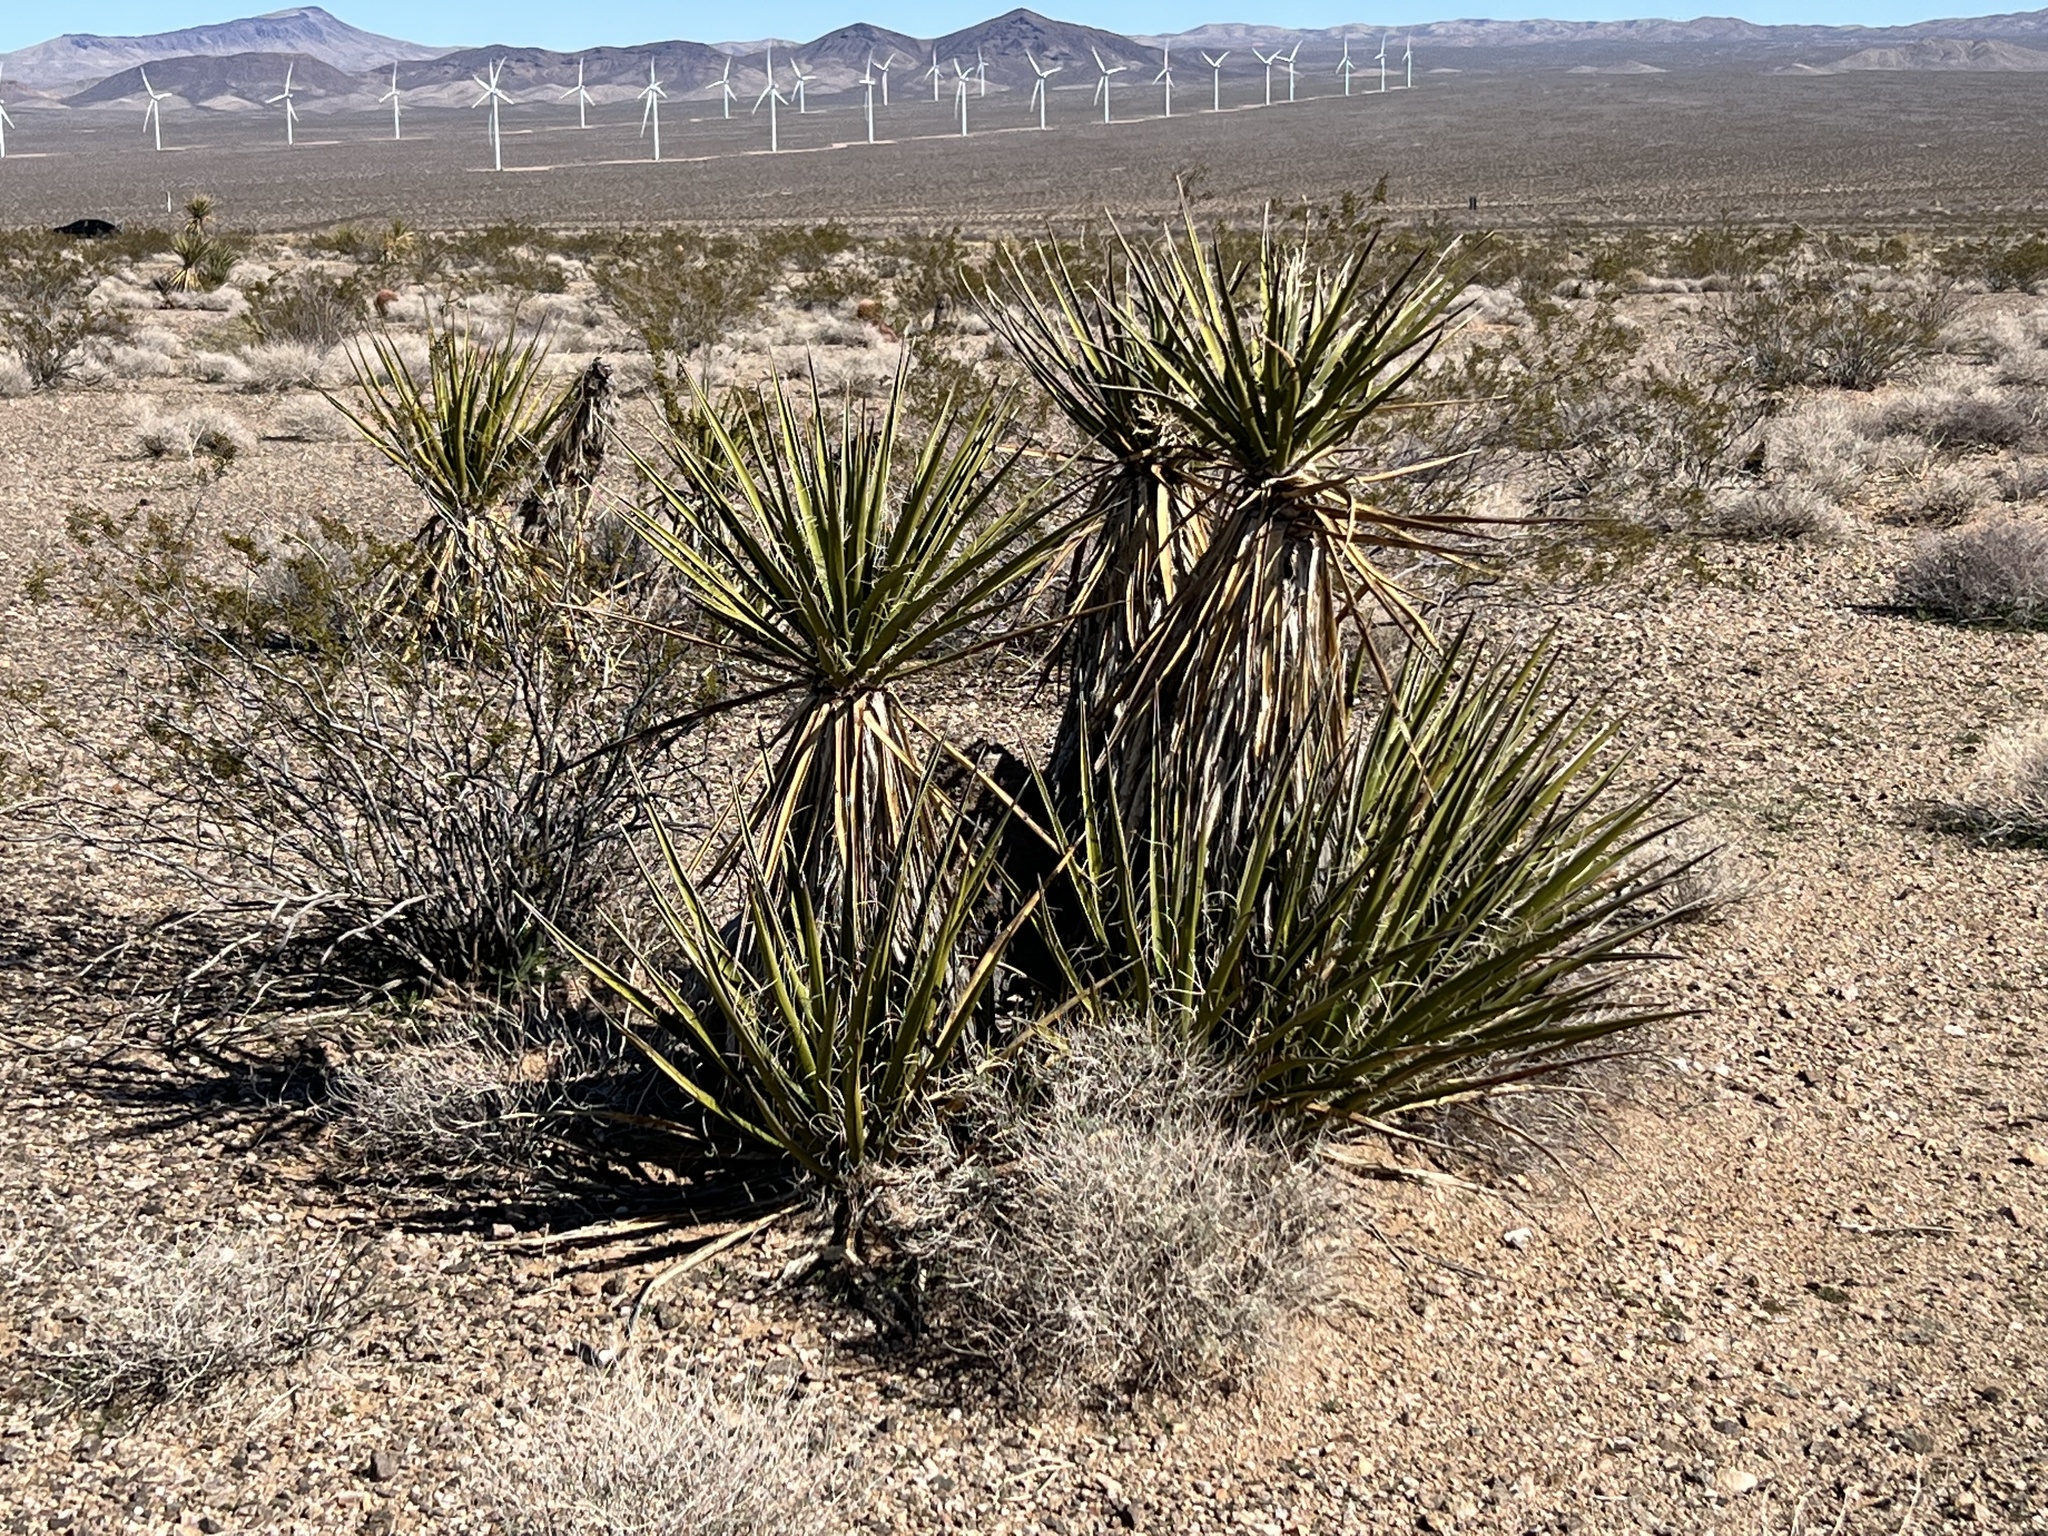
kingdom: Plantae
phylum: Tracheophyta
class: Liliopsida
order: Asparagales
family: Asparagaceae
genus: Yucca
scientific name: Yucca schidigera
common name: Mojave yucca
